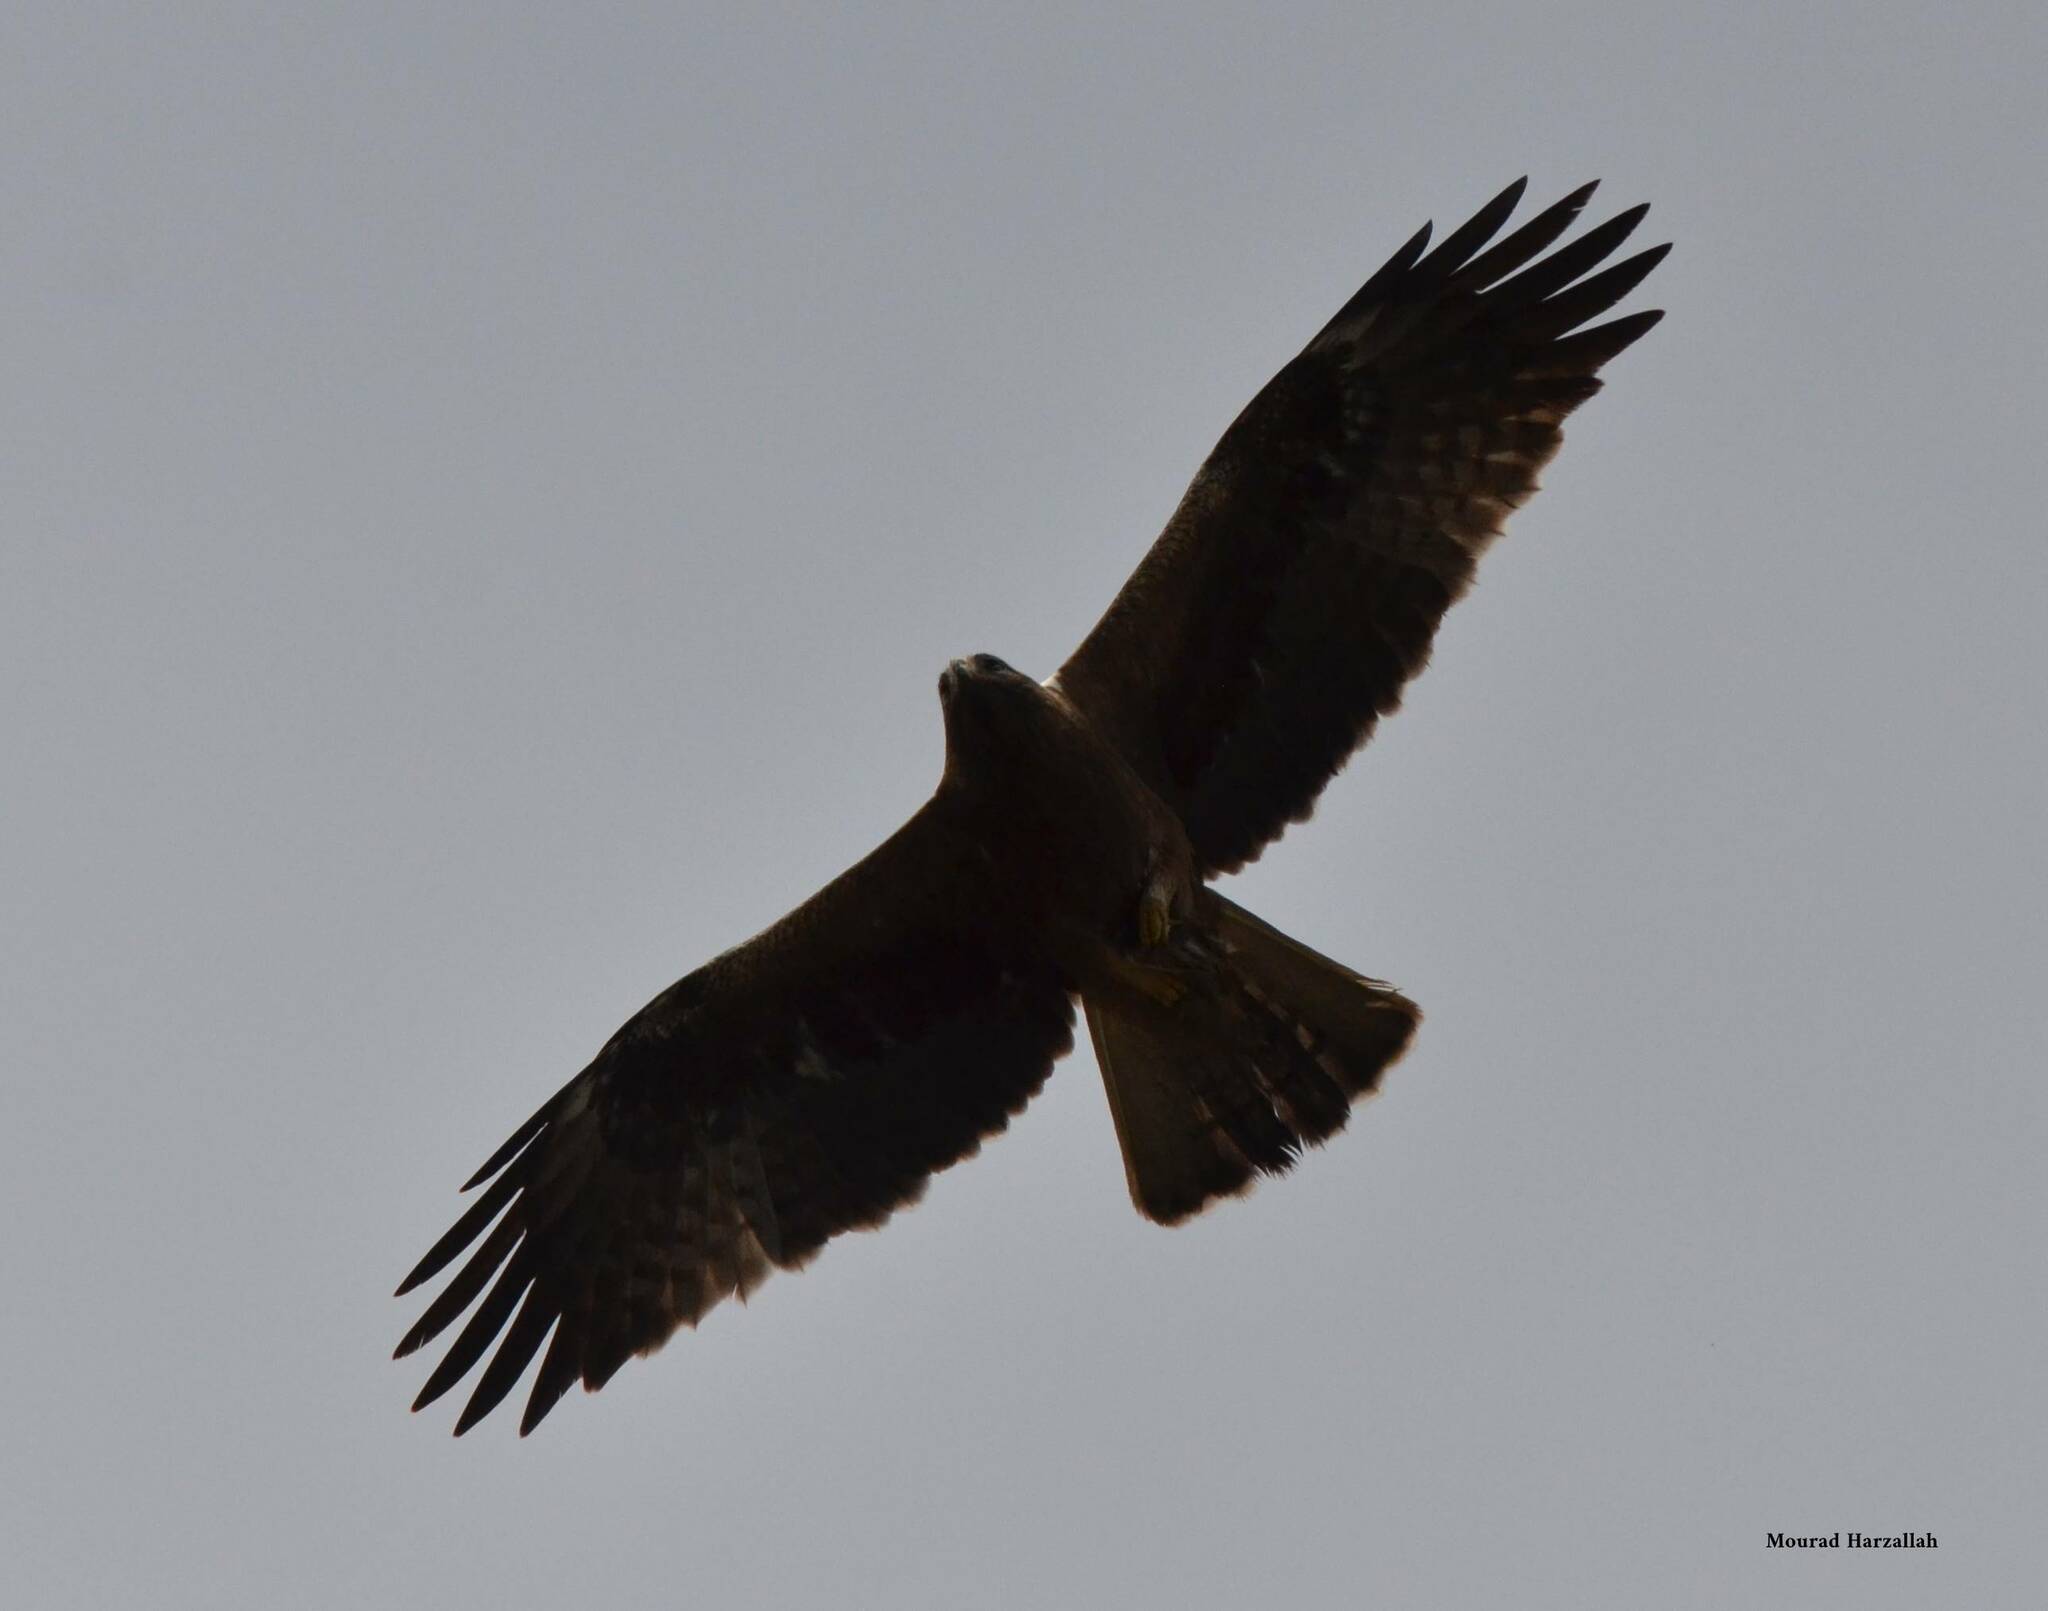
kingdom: Animalia
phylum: Chordata
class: Aves
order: Accipitriformes
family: Accipitridae
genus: Hieraaetus
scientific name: Hieraaetus pennatus
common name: Booted eagle
